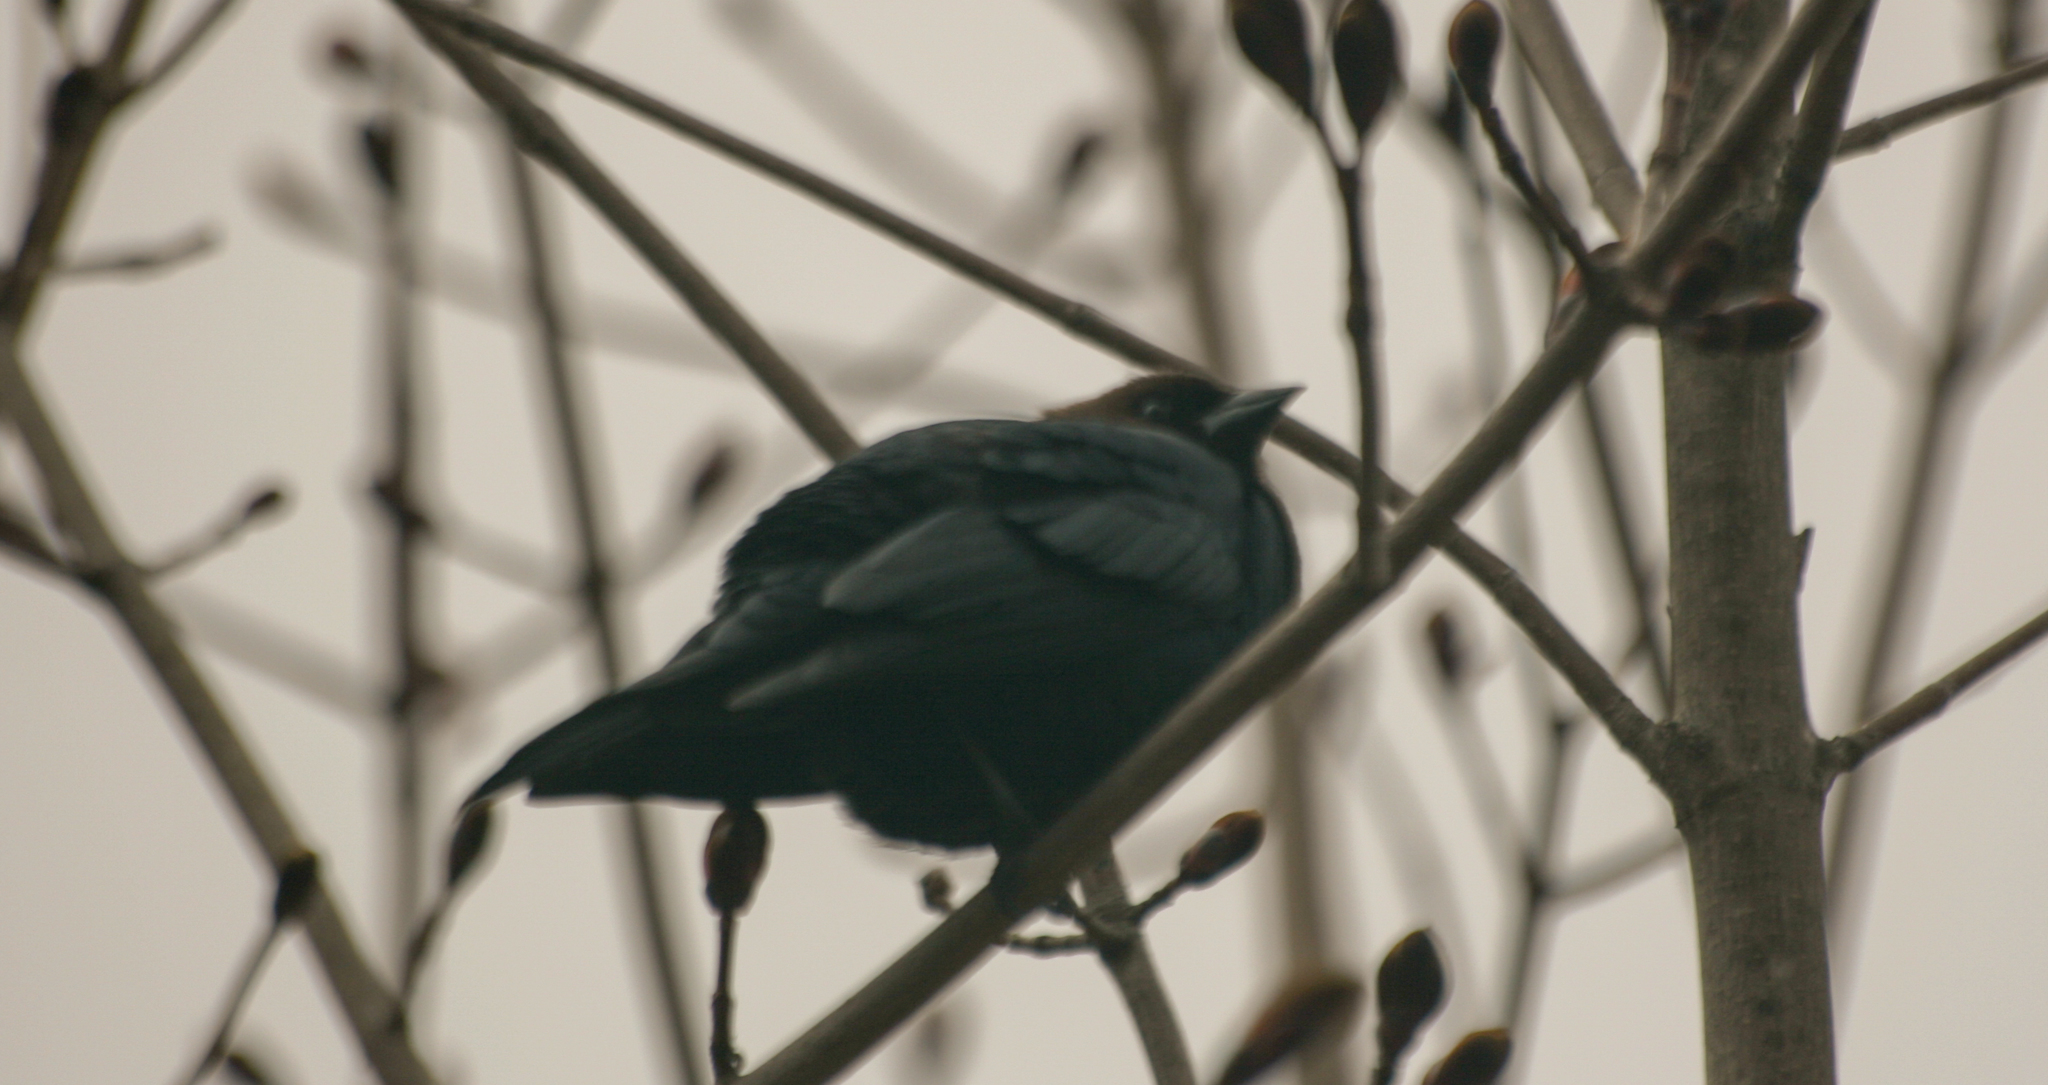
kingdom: Animalia
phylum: Chordata
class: Aves
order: Passeriformes
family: Icteridae
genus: Molothrus
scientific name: Molothrus ater
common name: Brown-headed cowbird
